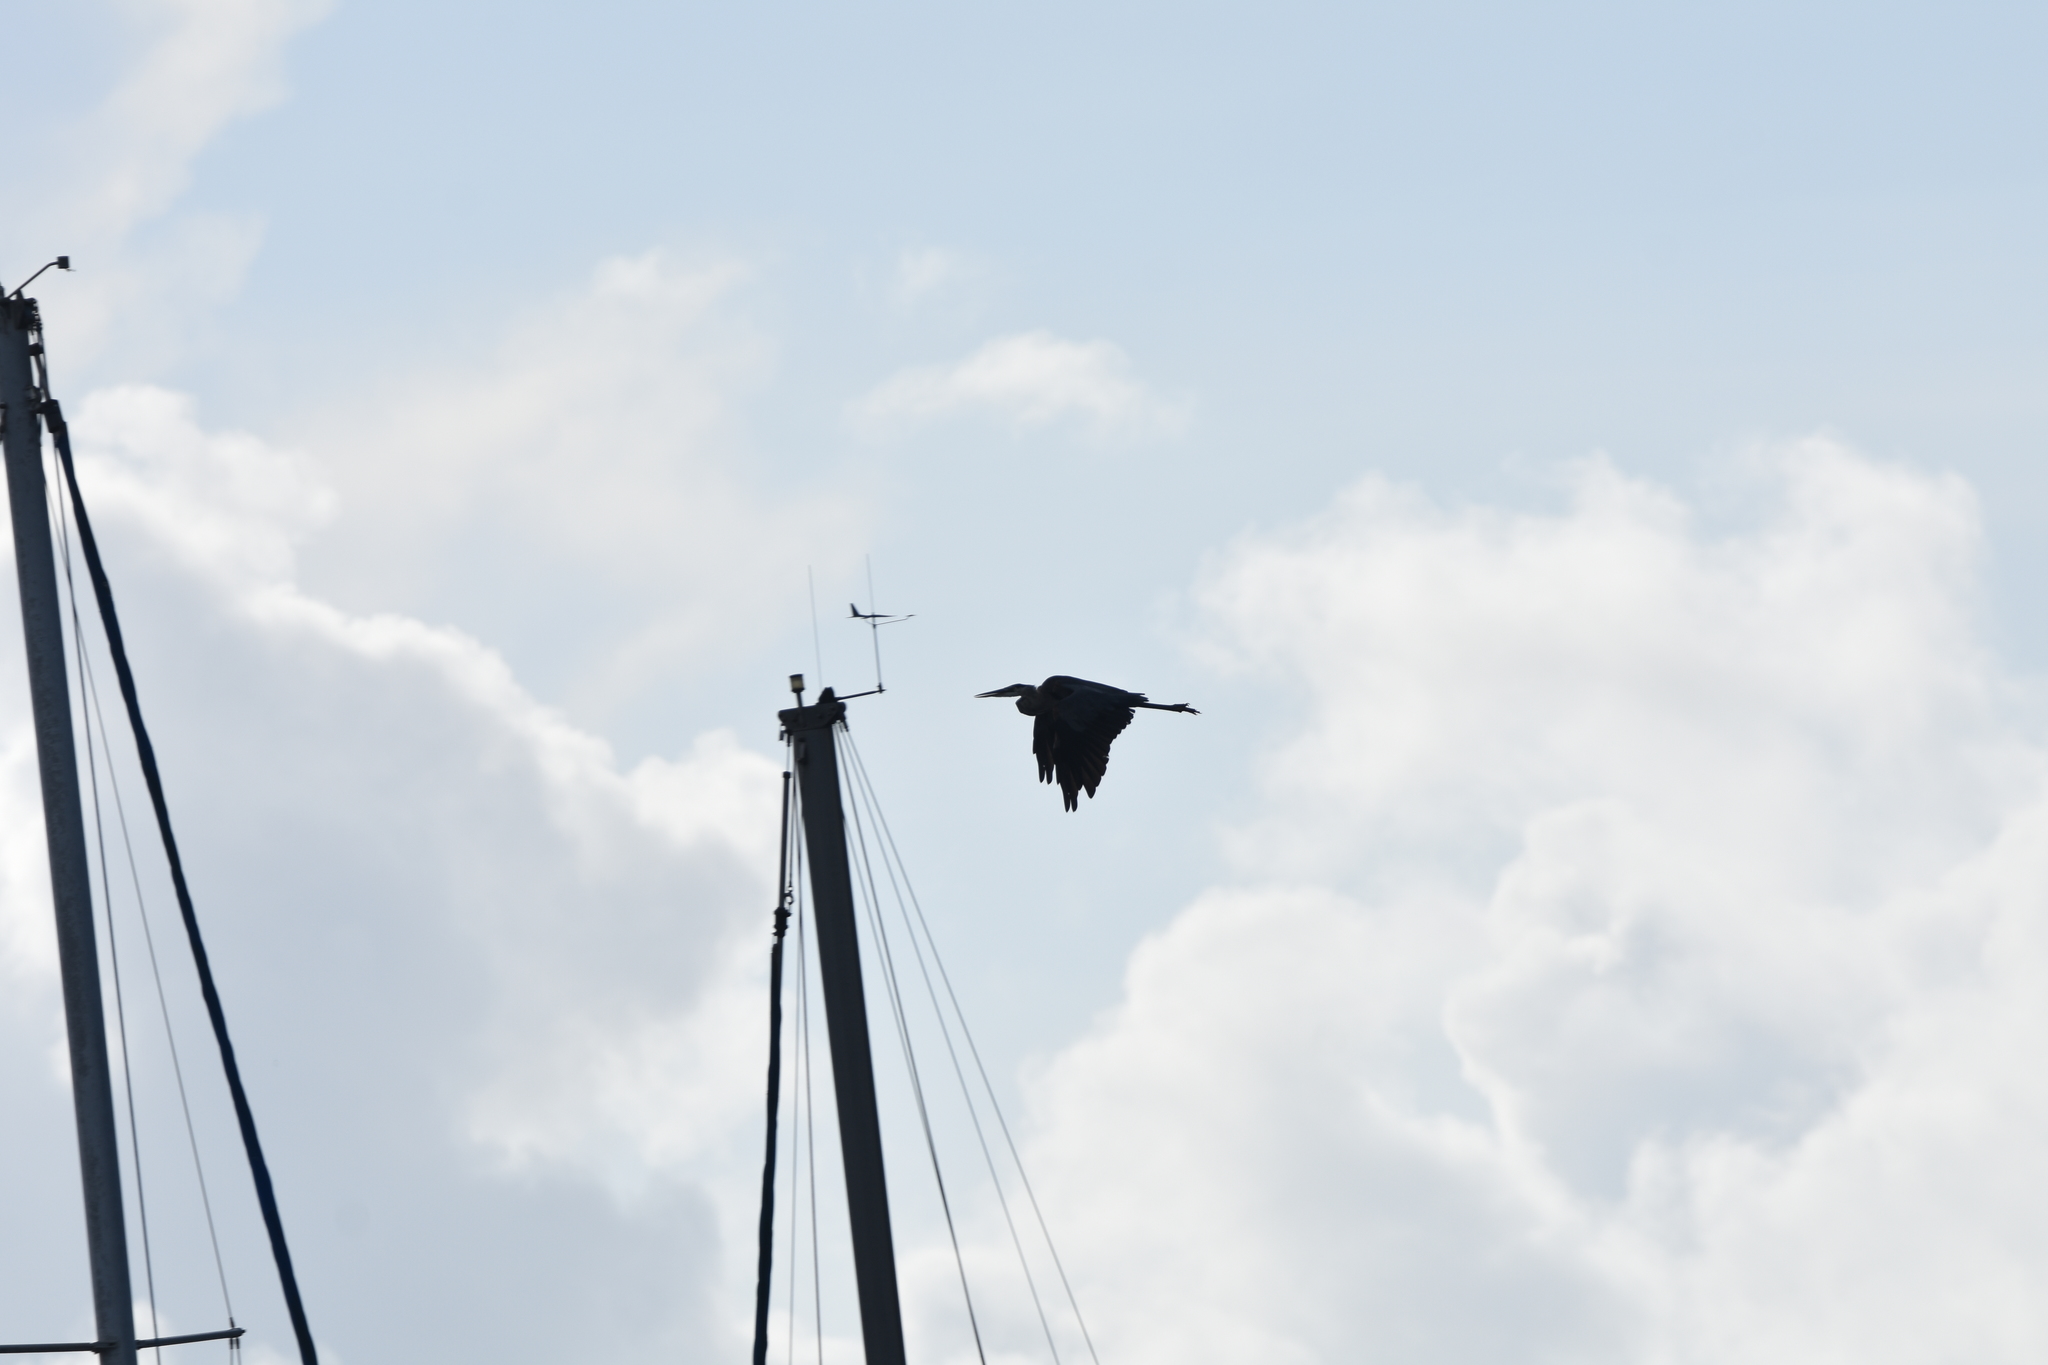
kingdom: Animalia
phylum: Chordata
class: Aves
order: Pelecaniformes
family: Ardeidae
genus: Ardea
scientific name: Ardea herodias
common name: Great blue heron
